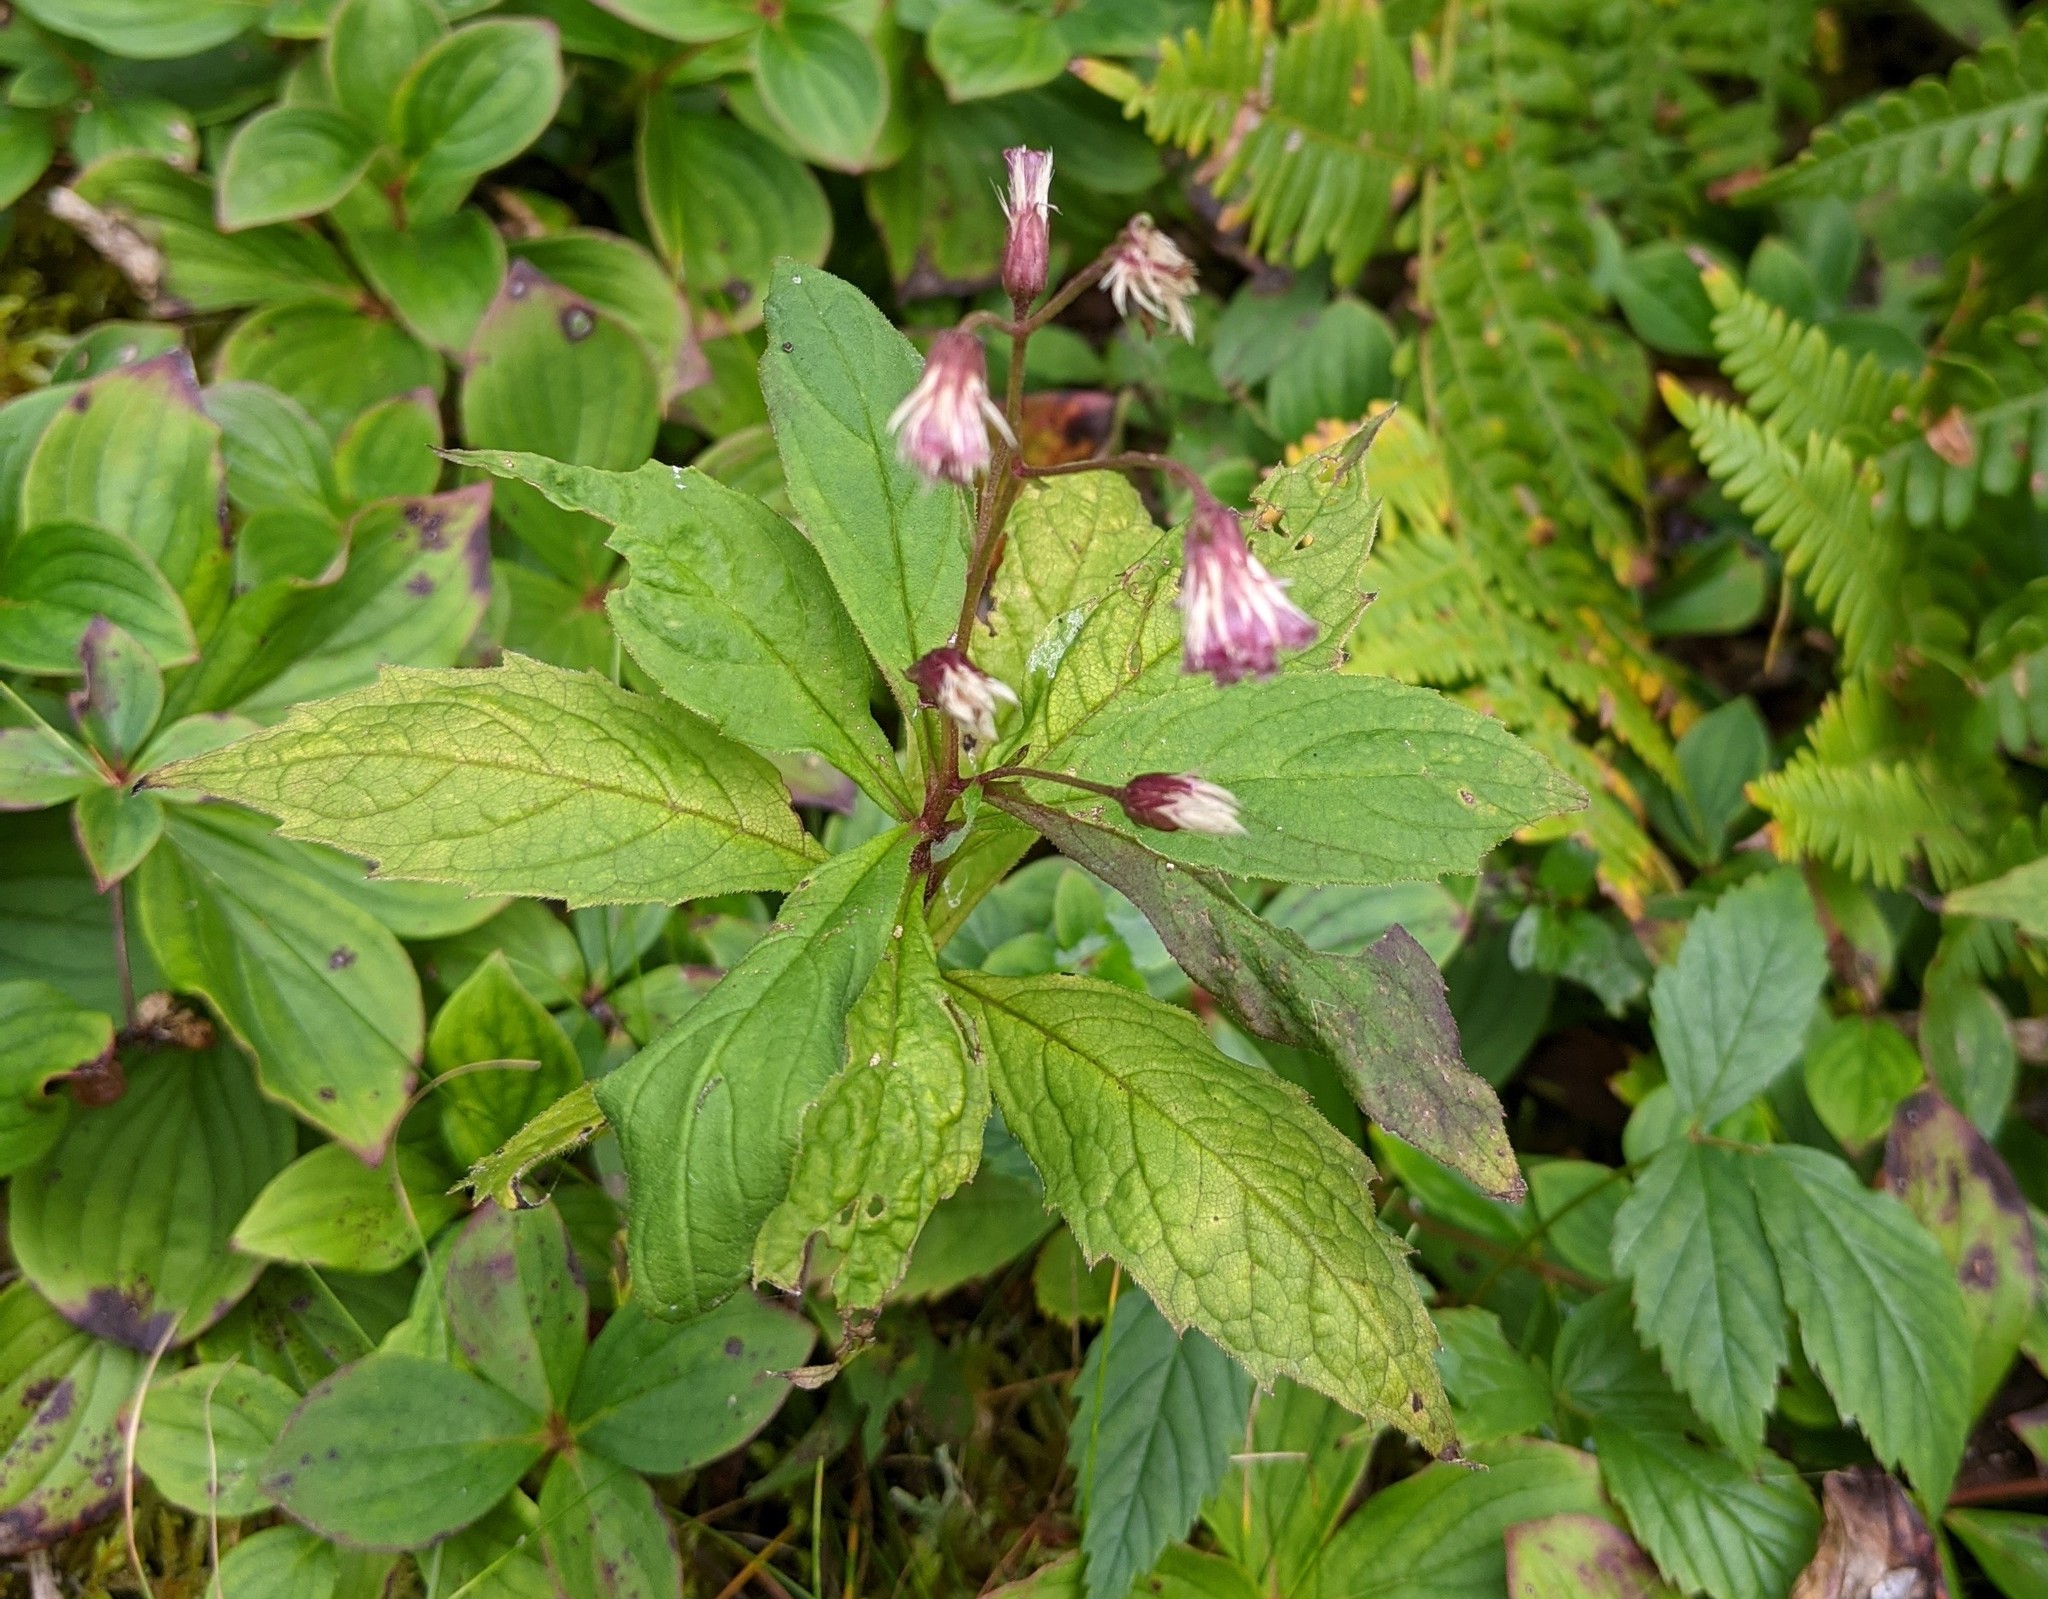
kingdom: Plantae
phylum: Tracheophyta
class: Magnoliopsida
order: Asterales
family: Asteraceae
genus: Oclemena
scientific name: Oclemena acuminata
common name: Mountain aster
